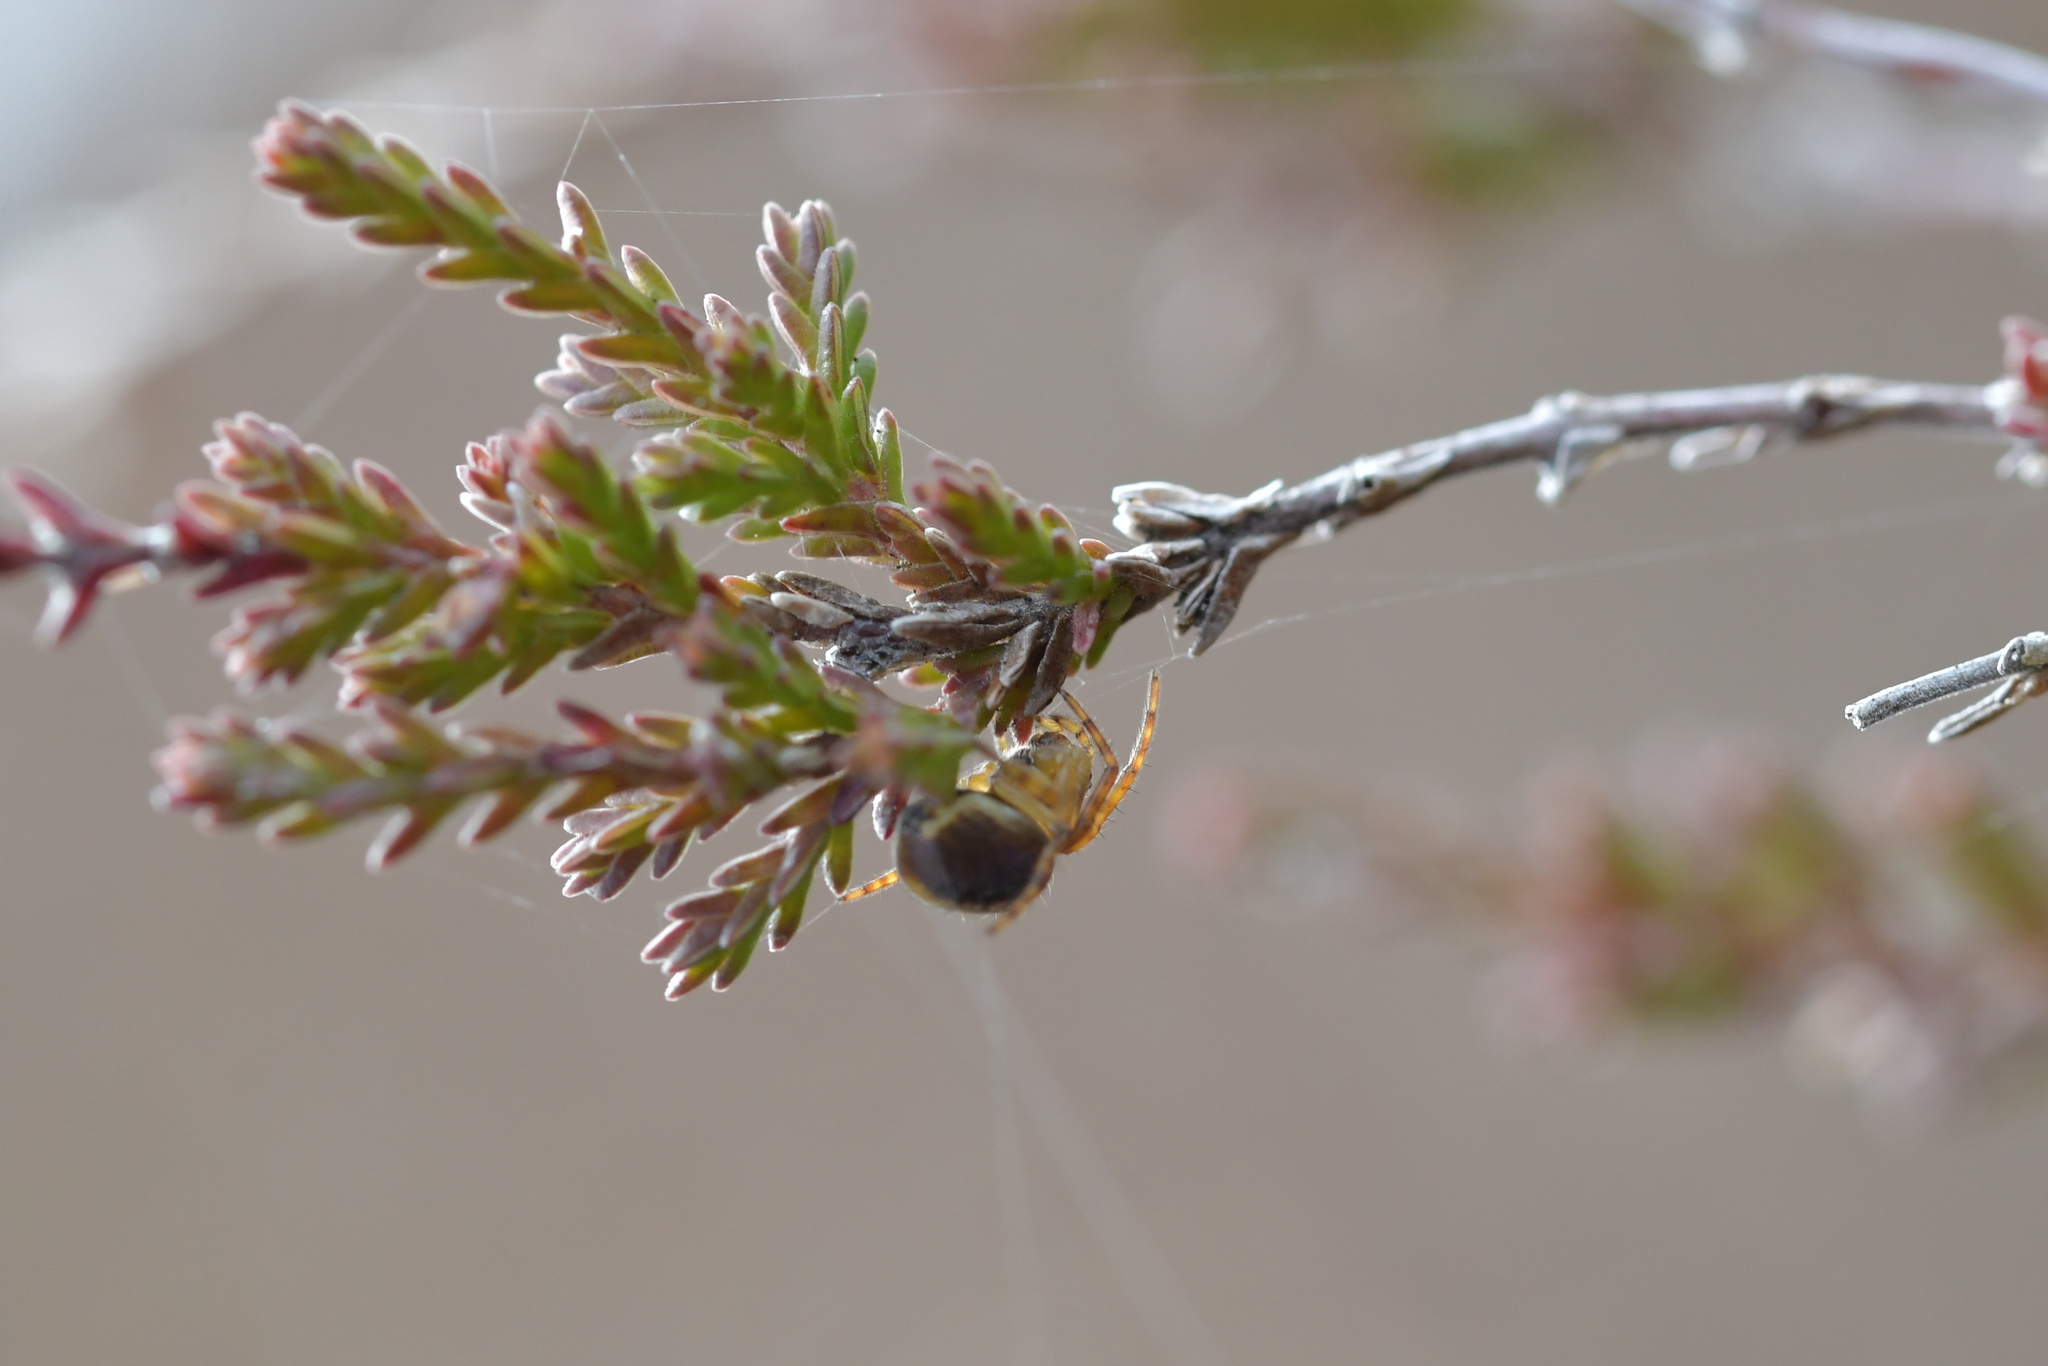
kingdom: Animalia
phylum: Arthropoda
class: Arachnida
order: Araneae
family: Araneidae
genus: Novaranea
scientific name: Novaranea queribunda
